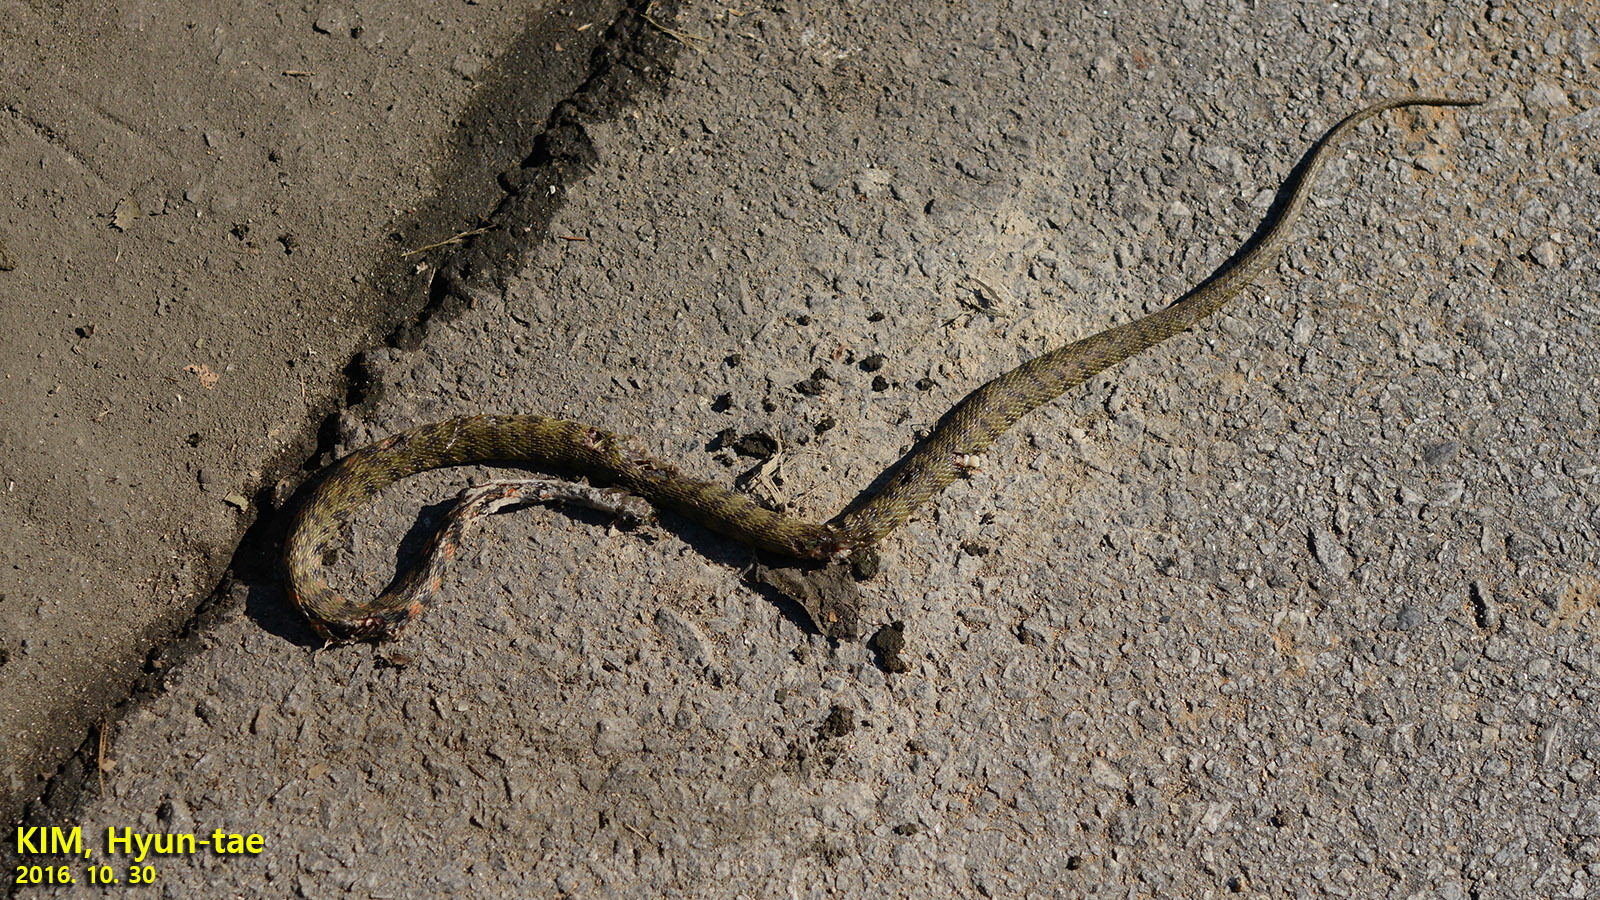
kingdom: Animalia
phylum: Chordata
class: Squamata
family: Colubridae
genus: Rhabdophis
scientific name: Rhabdophis tigrinus
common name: Tiger keelback
